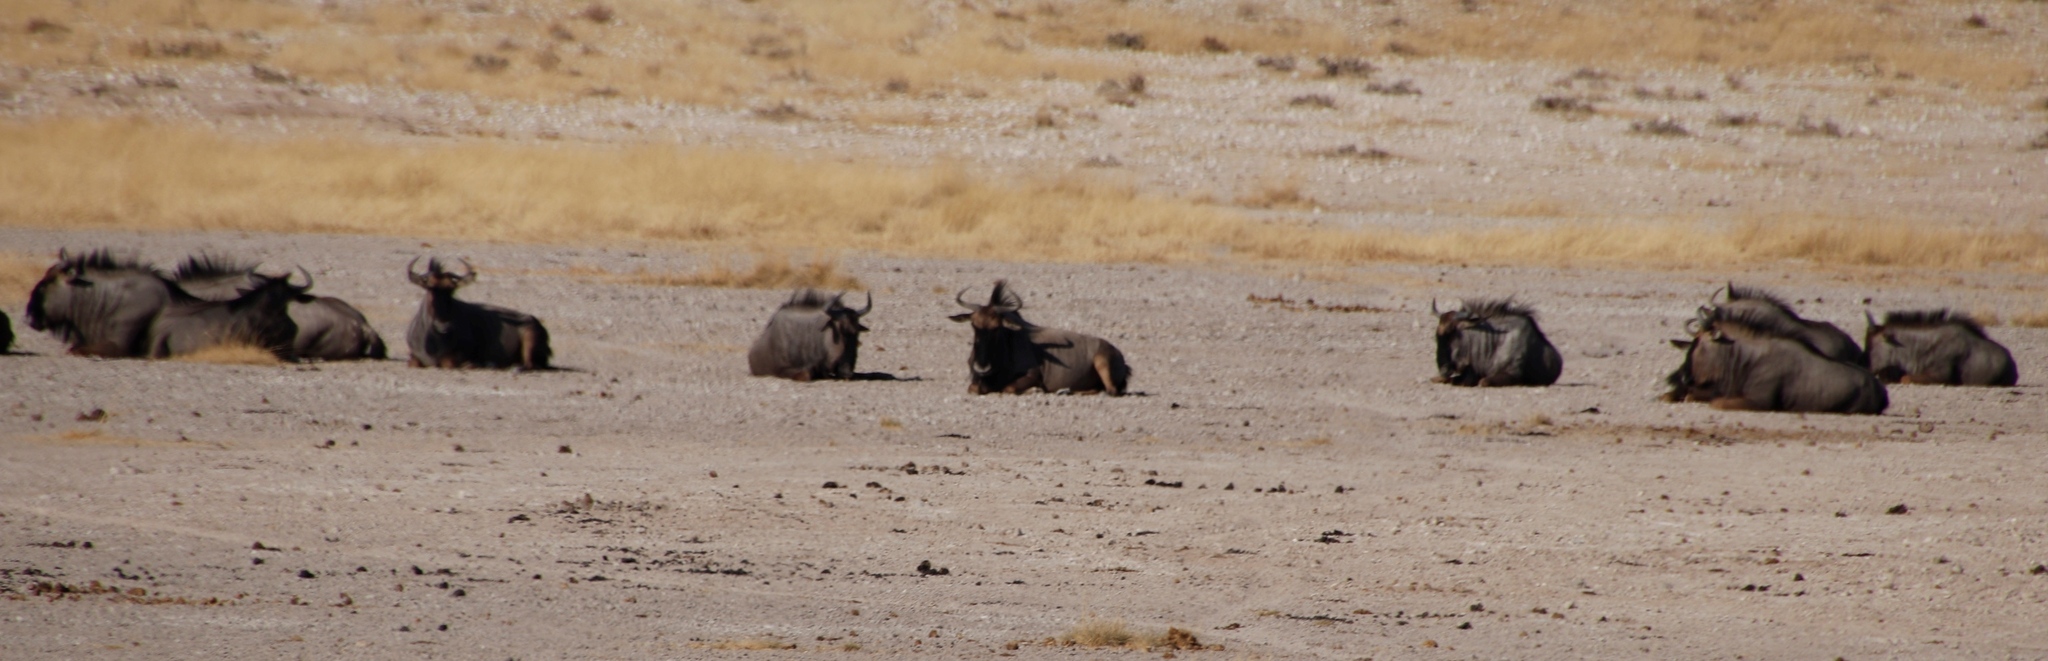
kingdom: Animalia
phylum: Chordata
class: Mammalia
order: Artiodactyla
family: Bovidae
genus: Connochaetes
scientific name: Connochaetes taurinus
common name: Blue wildebeest
